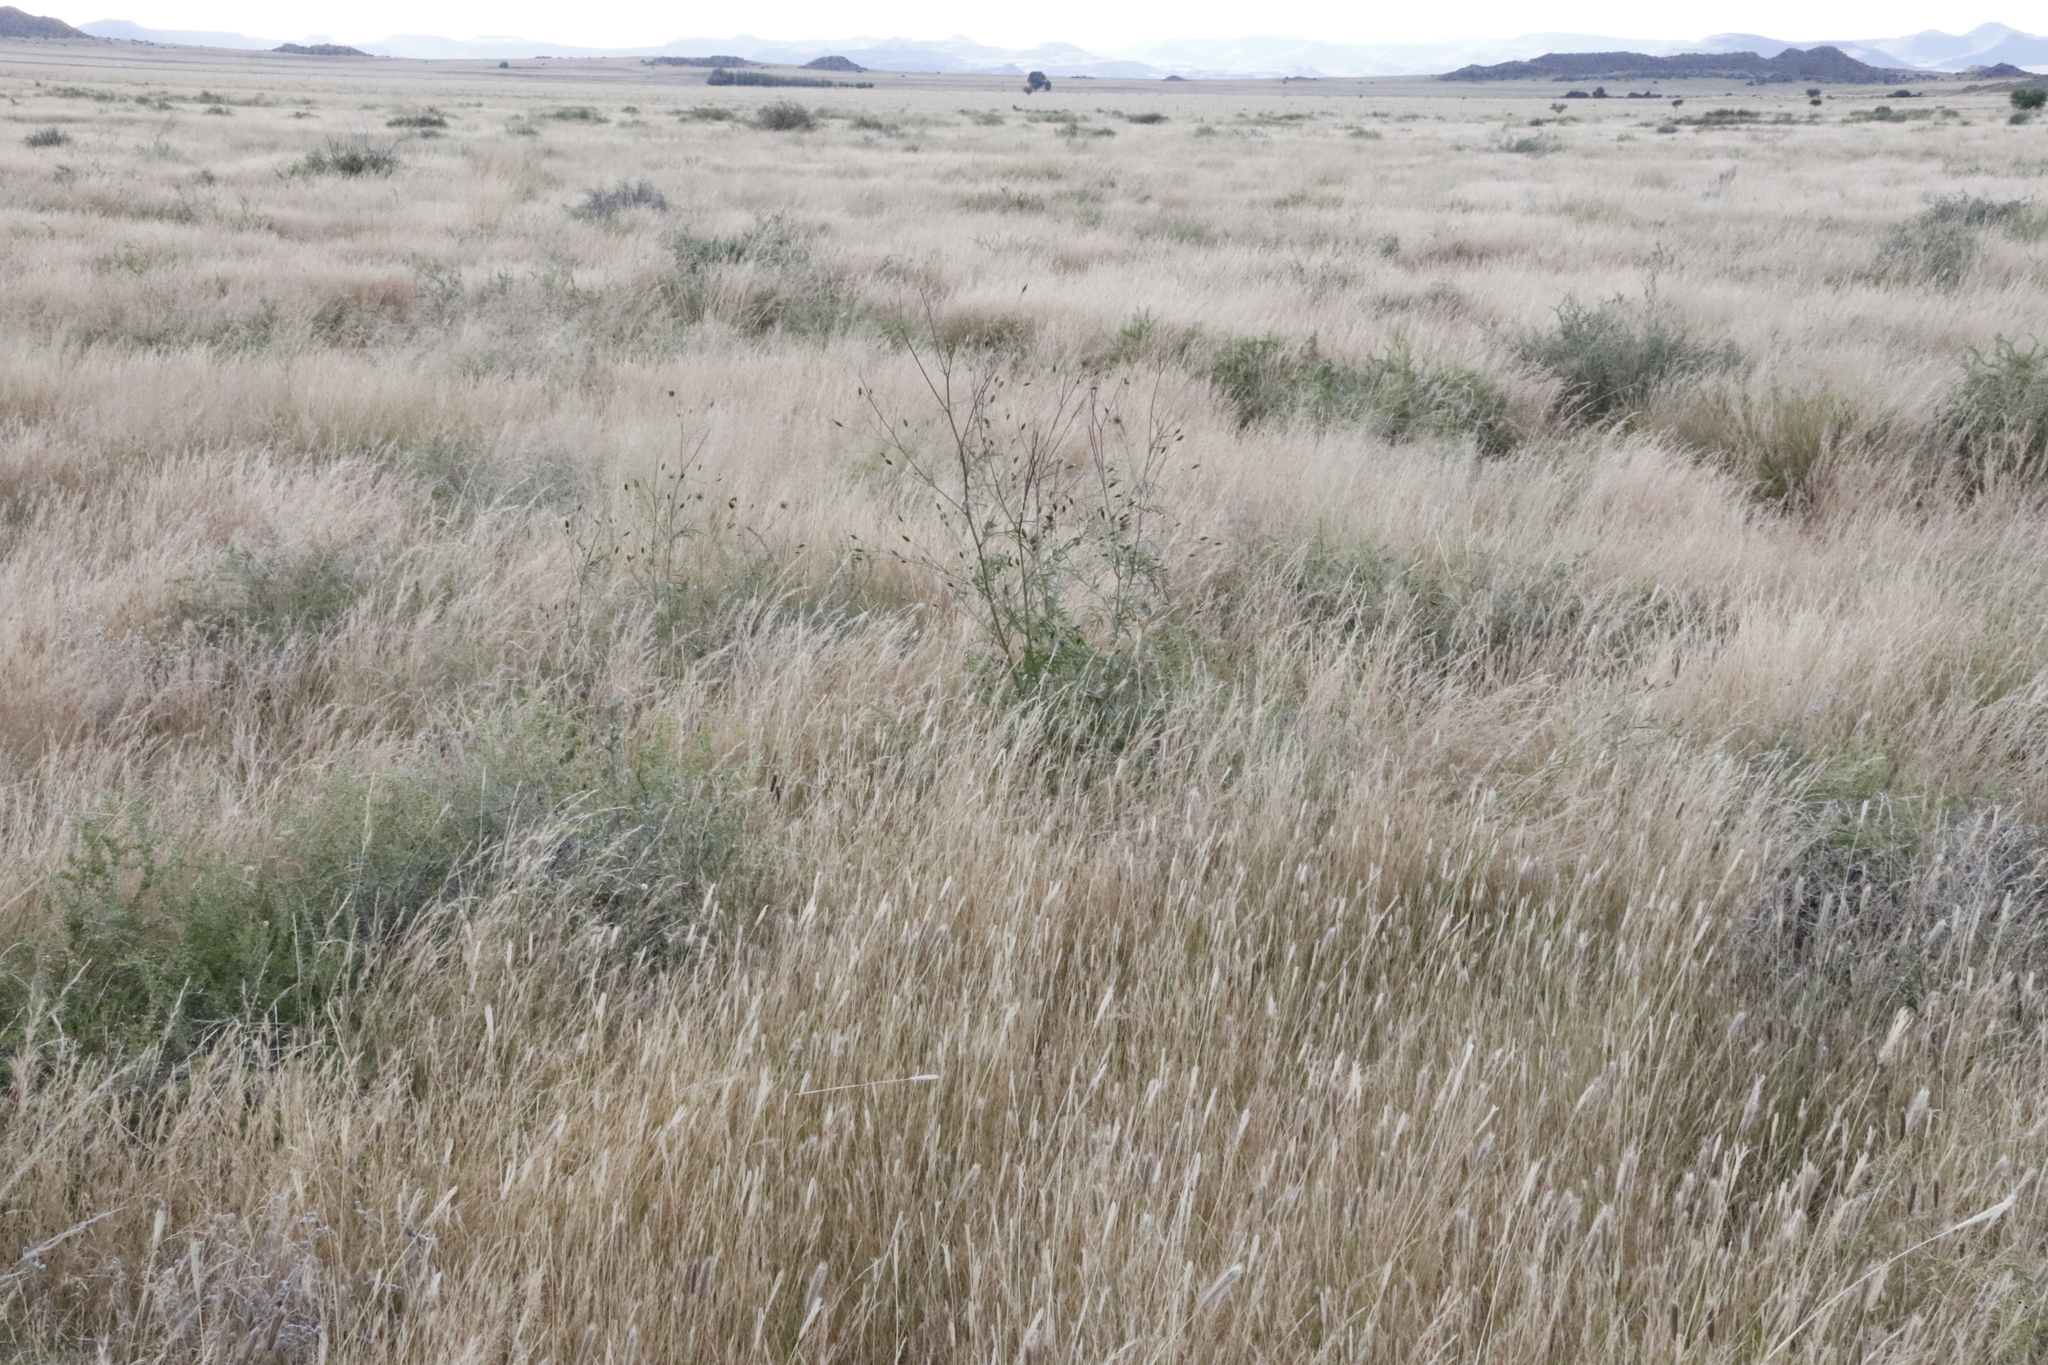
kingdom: Plantae
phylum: Tracheophyta
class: Liliopsida
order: Poales
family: Poaceae
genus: Chloris
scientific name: Chloris virgata
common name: Feathery rhodes-grass
